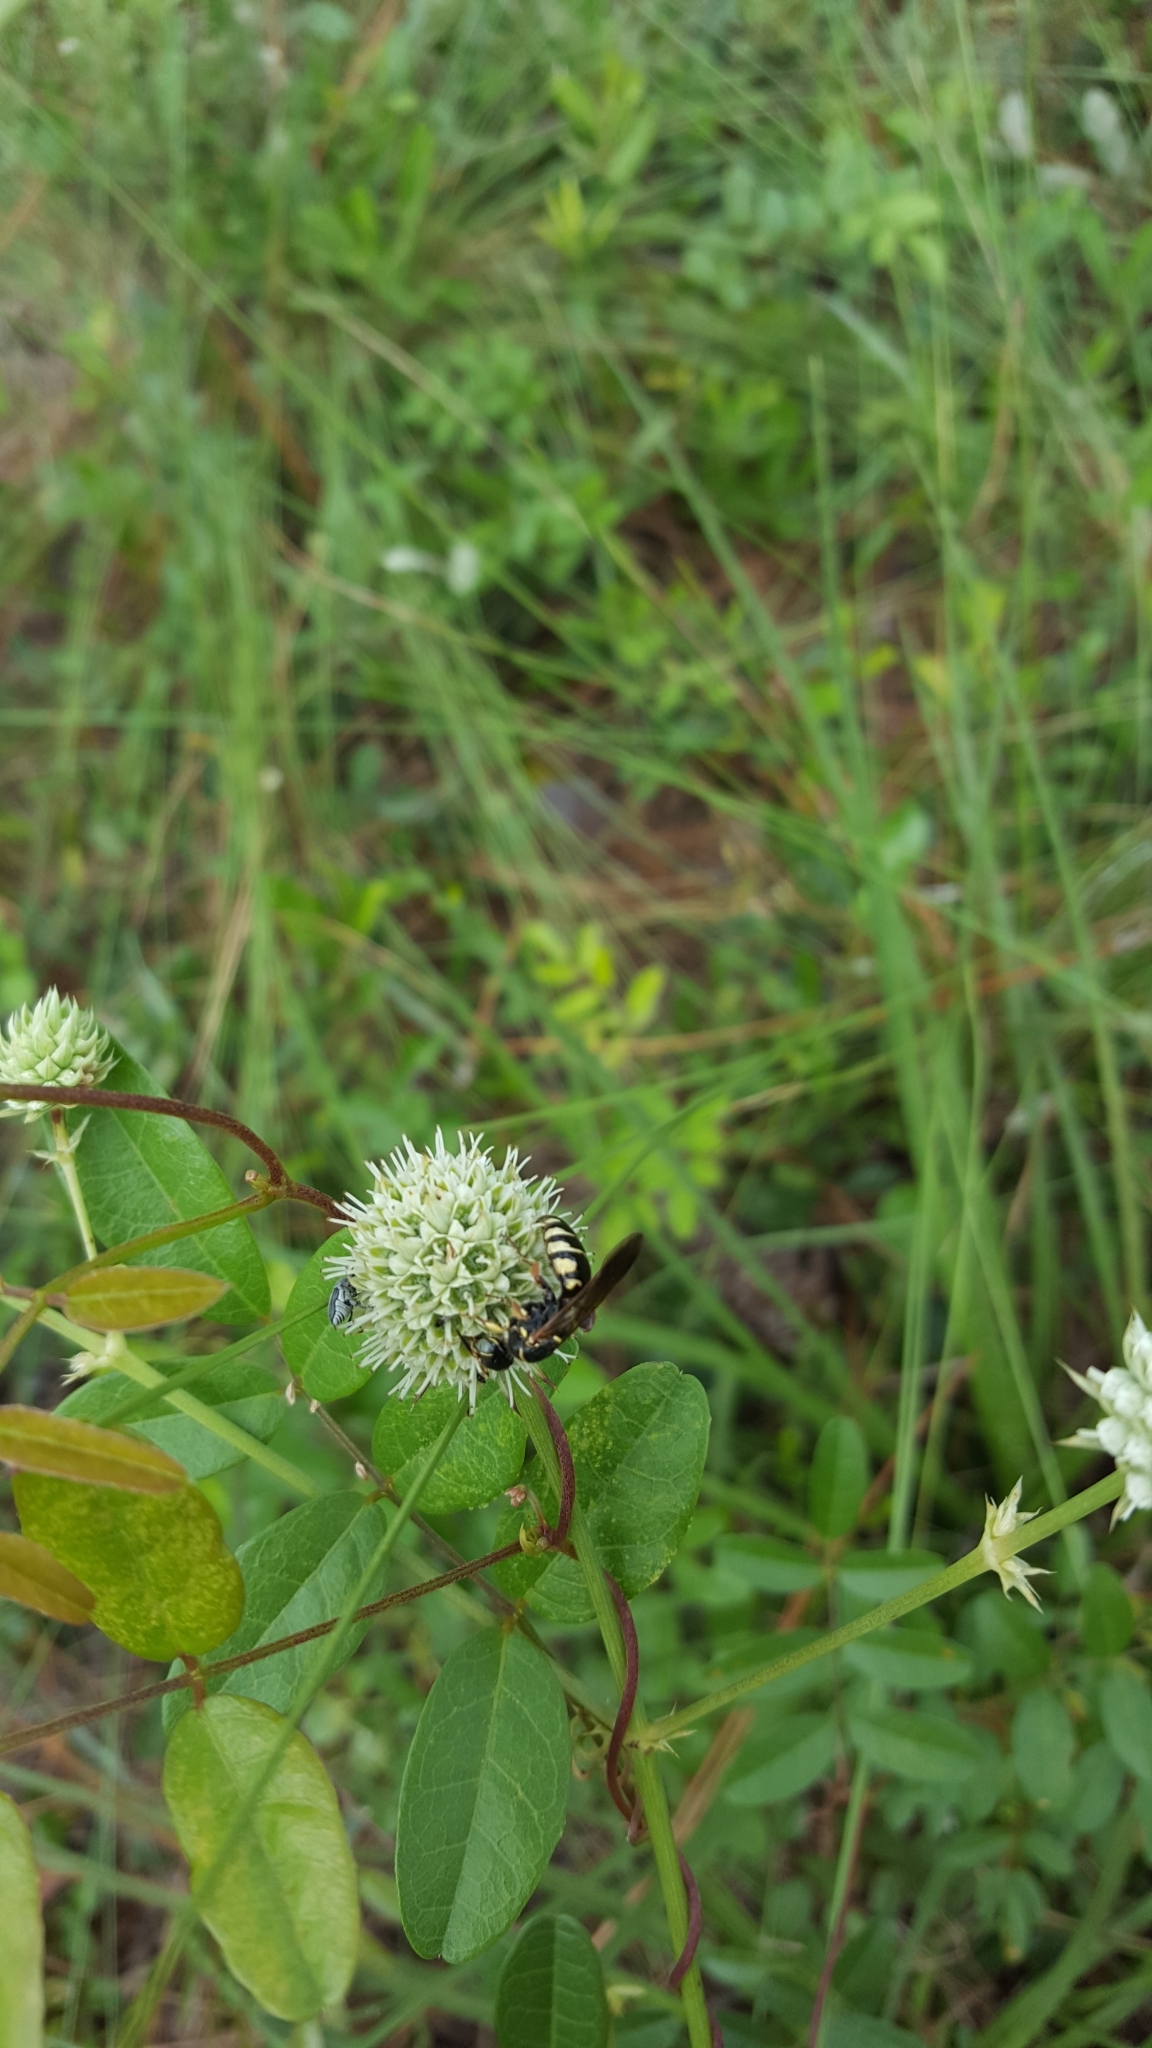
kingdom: Plantae
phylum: Tracheophyta
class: Magnoliopsida
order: Apiales
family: Apiaceae
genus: Eryngium
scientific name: Eryngium yuccifolium
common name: Button eryngo
